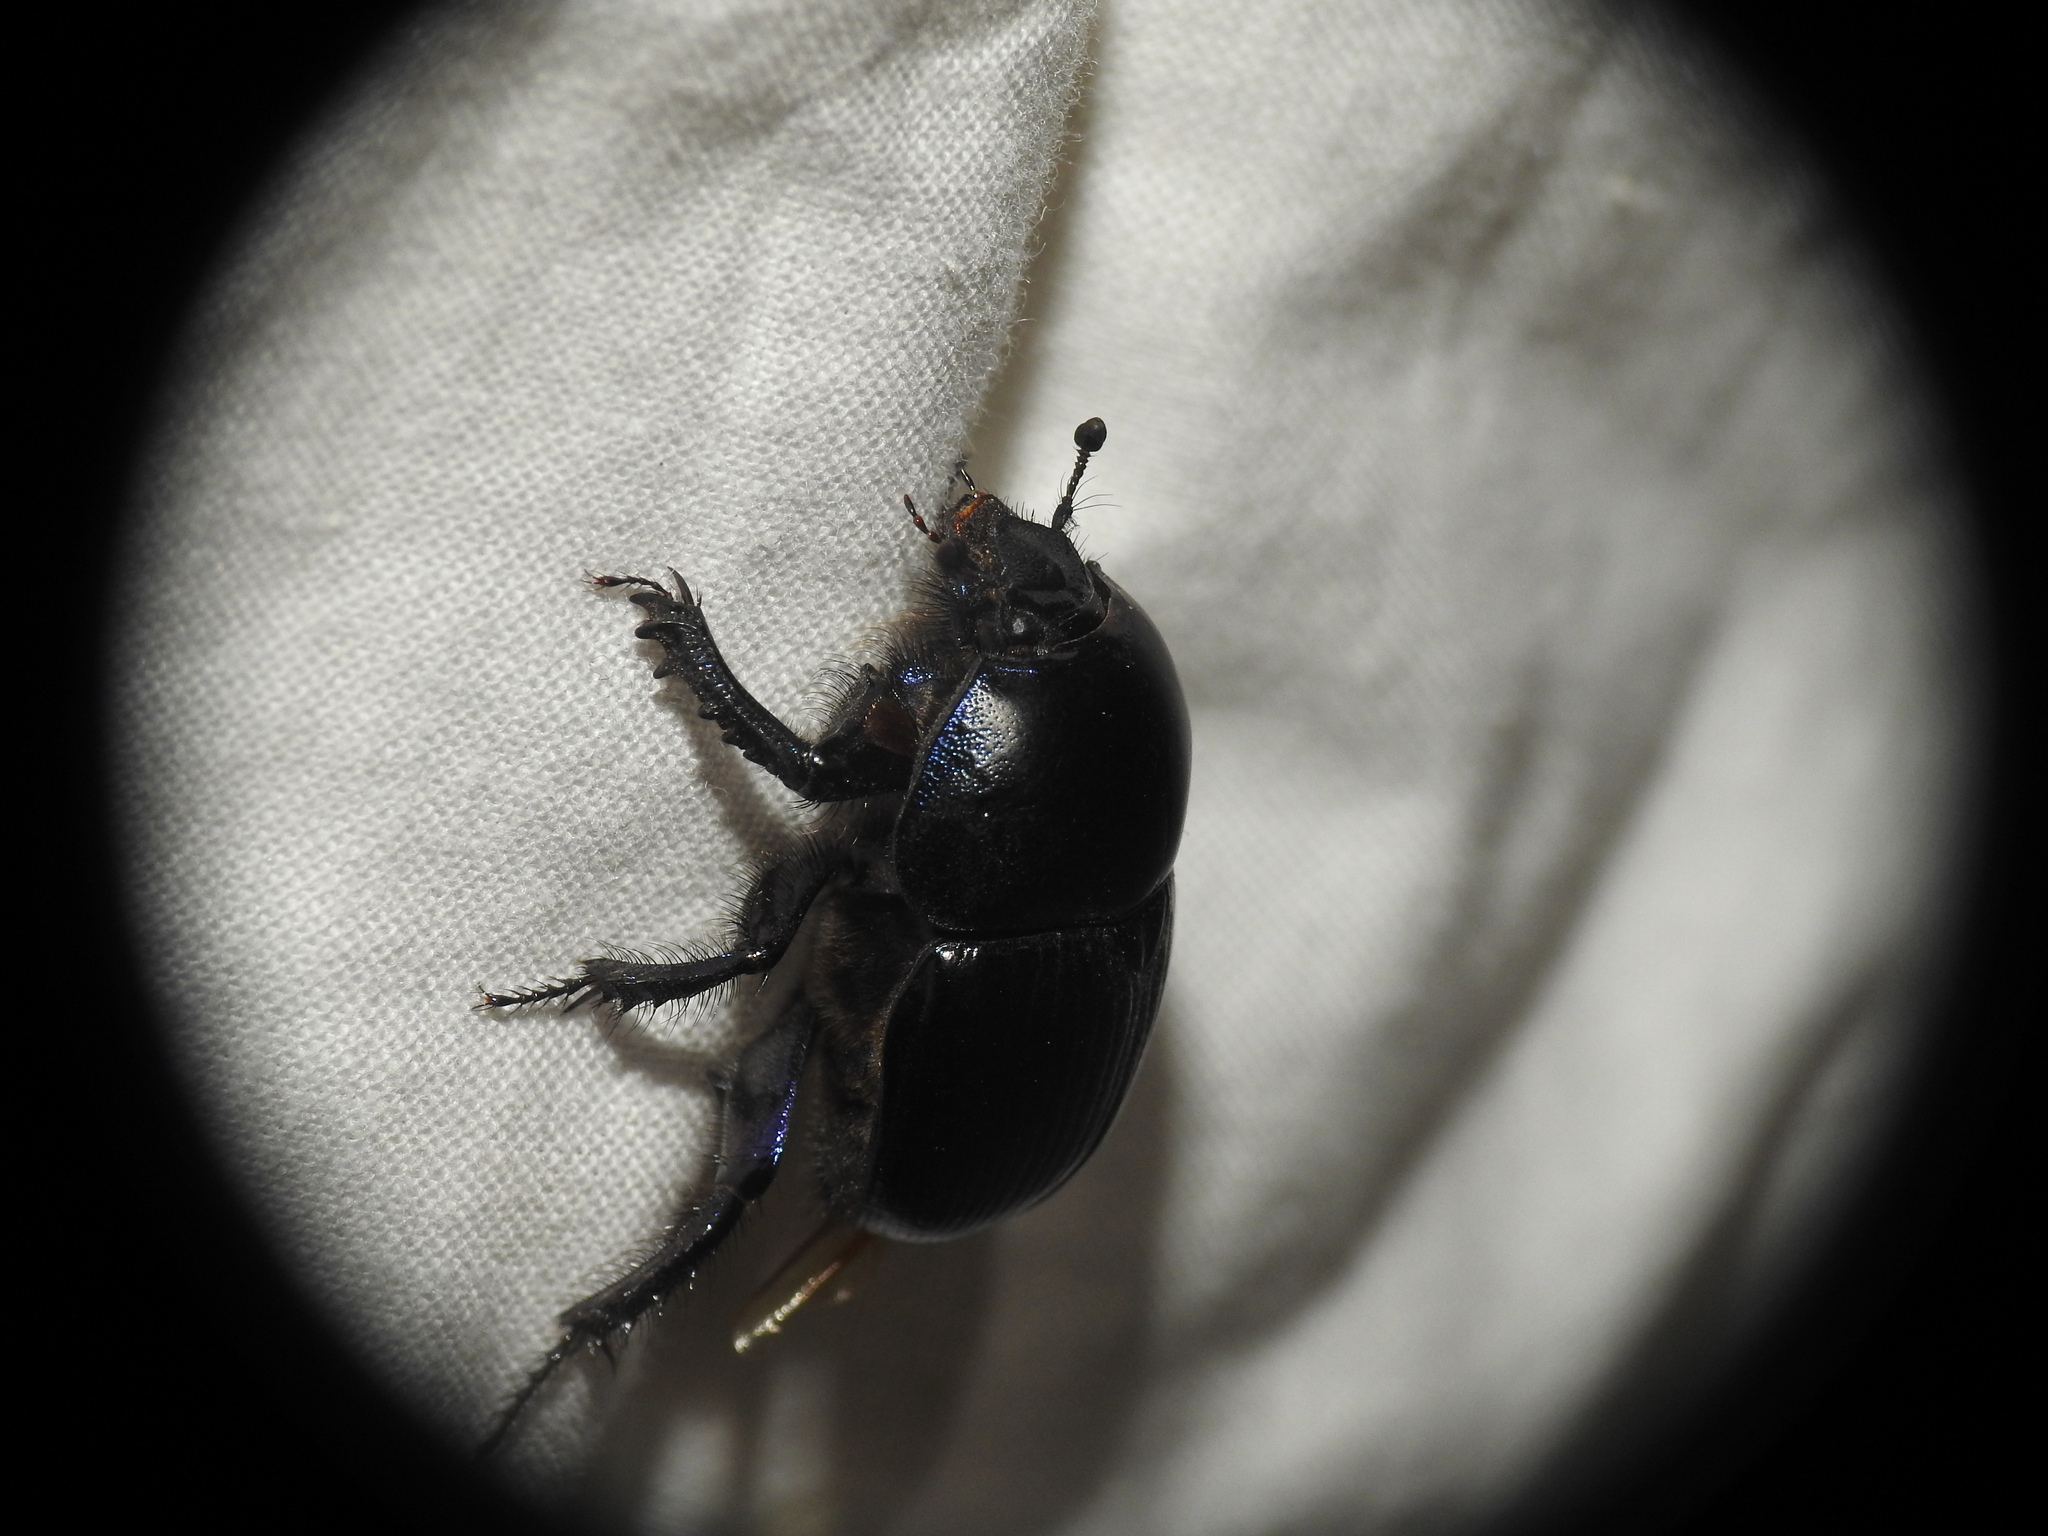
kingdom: Animalia
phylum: Arthropoda
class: Insecta
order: Coleoptera
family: Geotrupidae
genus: Geotrupes
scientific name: Geotrupes spiniger
